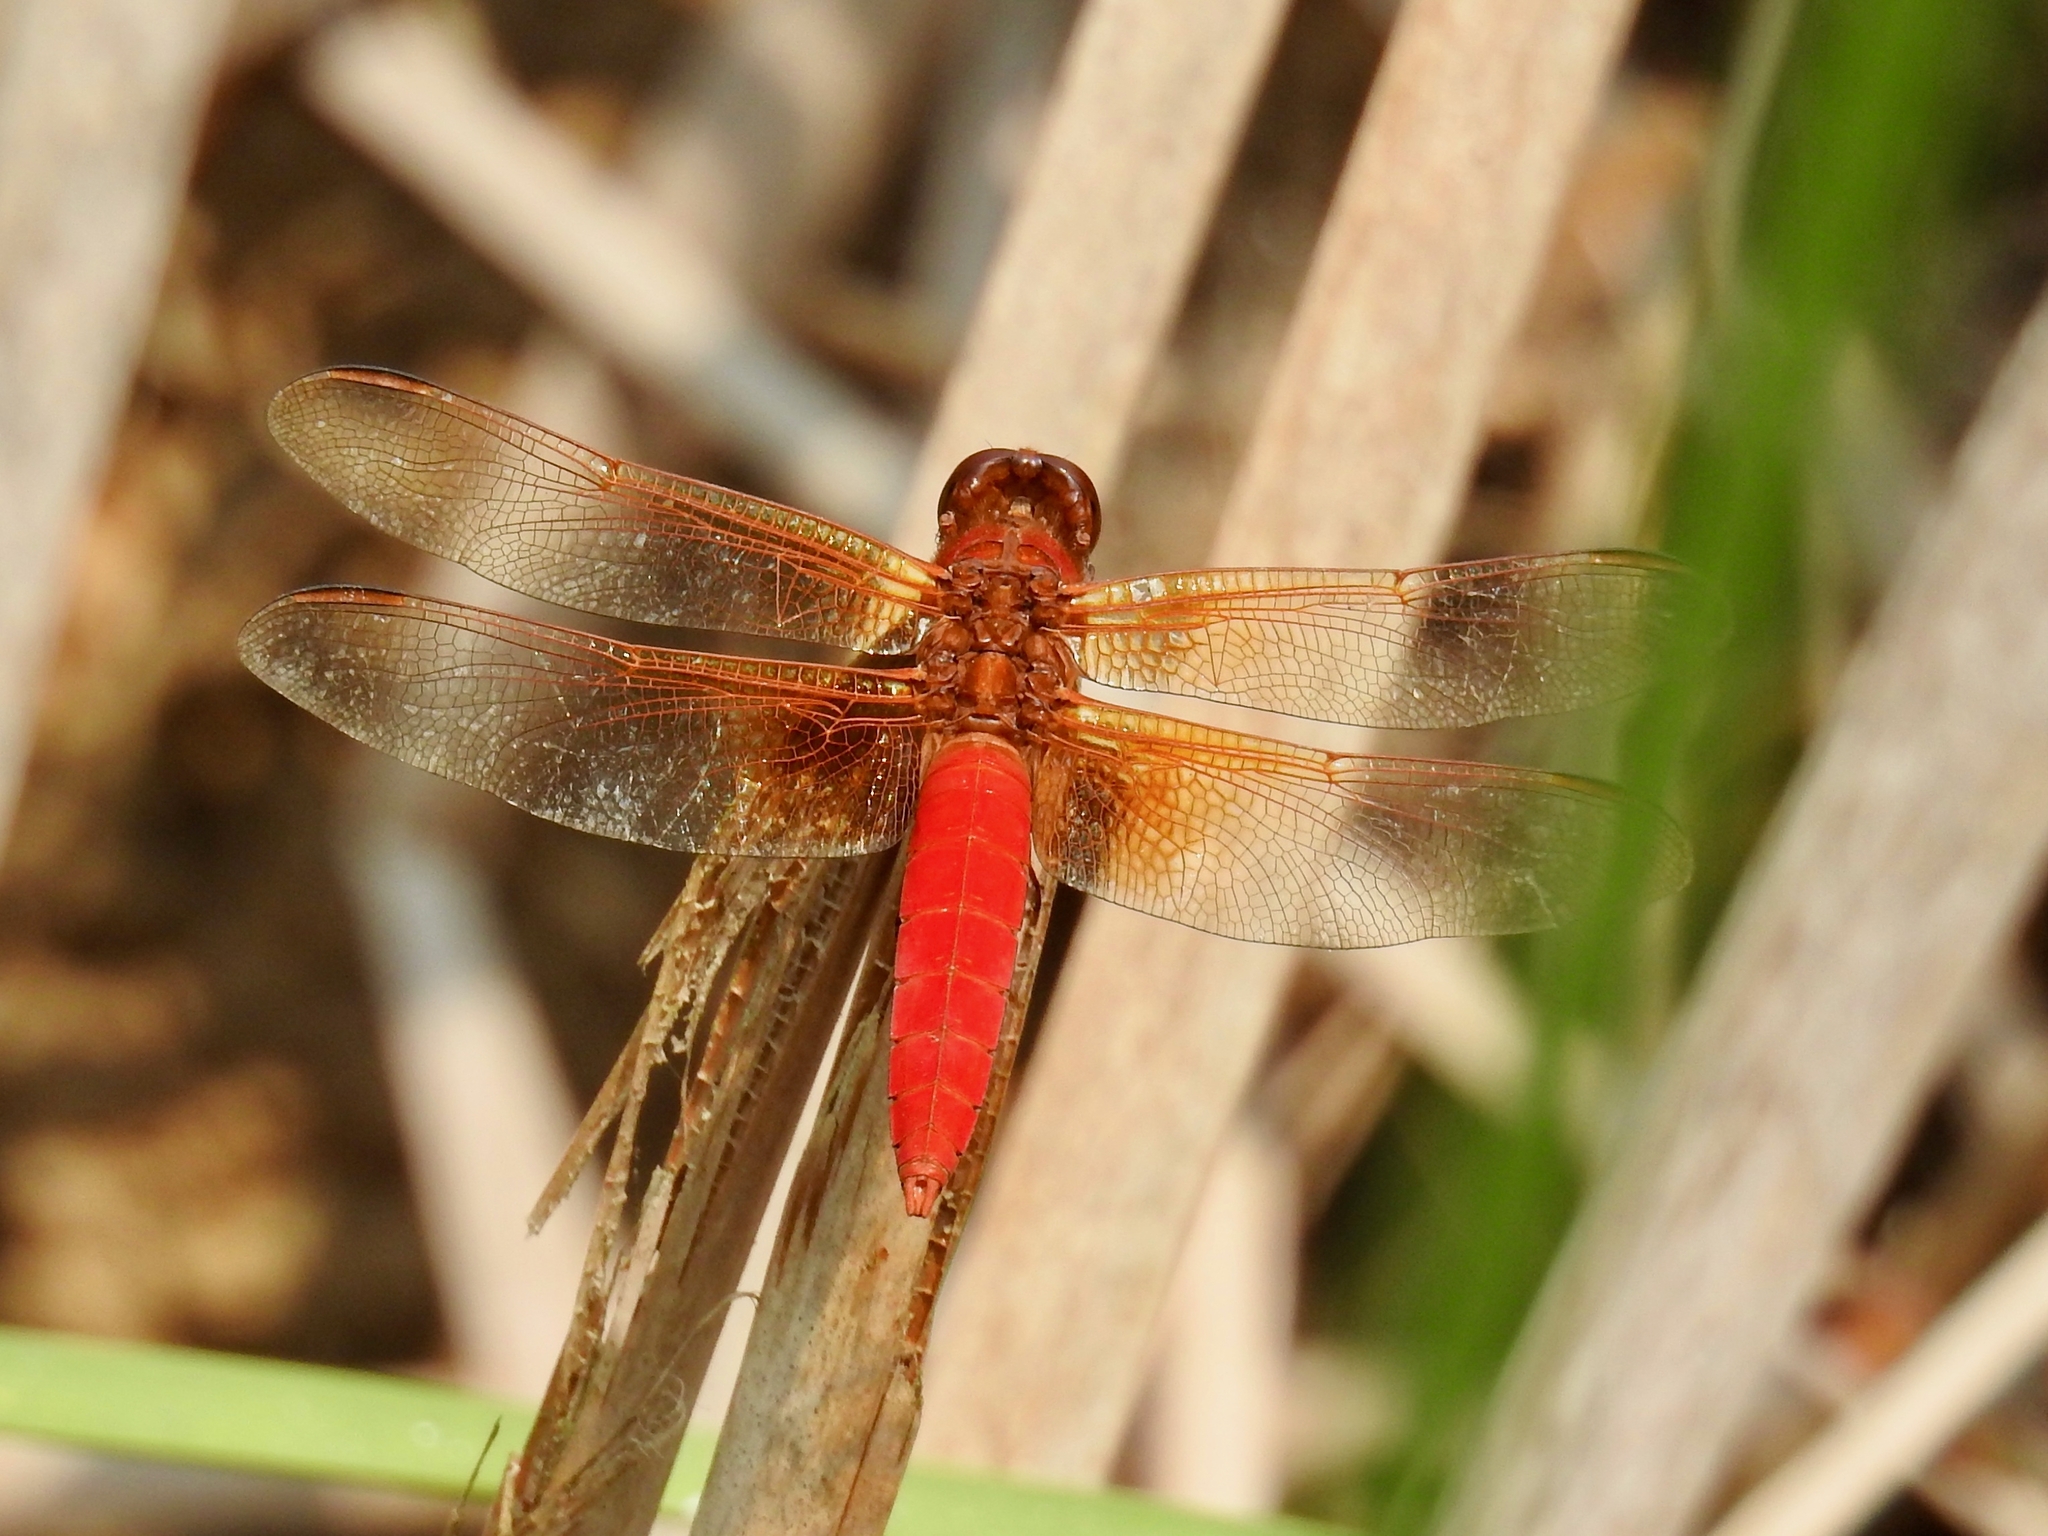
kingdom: Animalia
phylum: Arthropoda
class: Insecta
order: Odonata
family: Libellulidae
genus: Libellula
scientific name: Libellula croceipennis
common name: Neon skimmer
